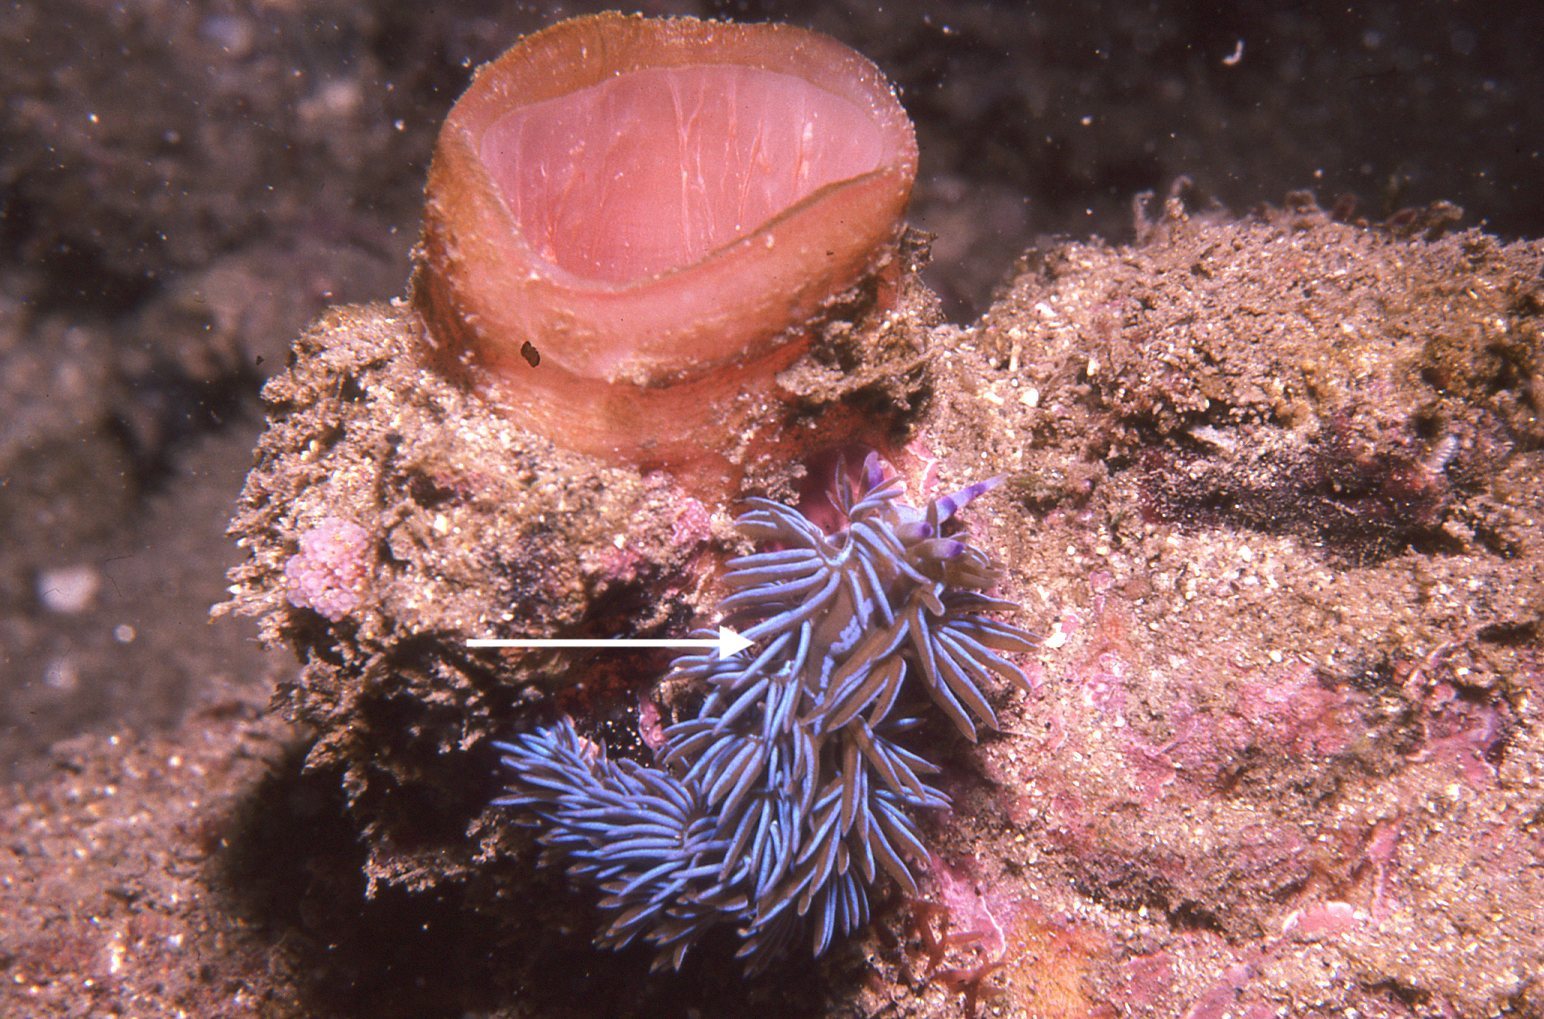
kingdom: Animalia
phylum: Mollusca
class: Gastropoda
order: Nudibranchia
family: Facelinidae
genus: Pteraeolidia
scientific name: Pteraeolidia ianthina
